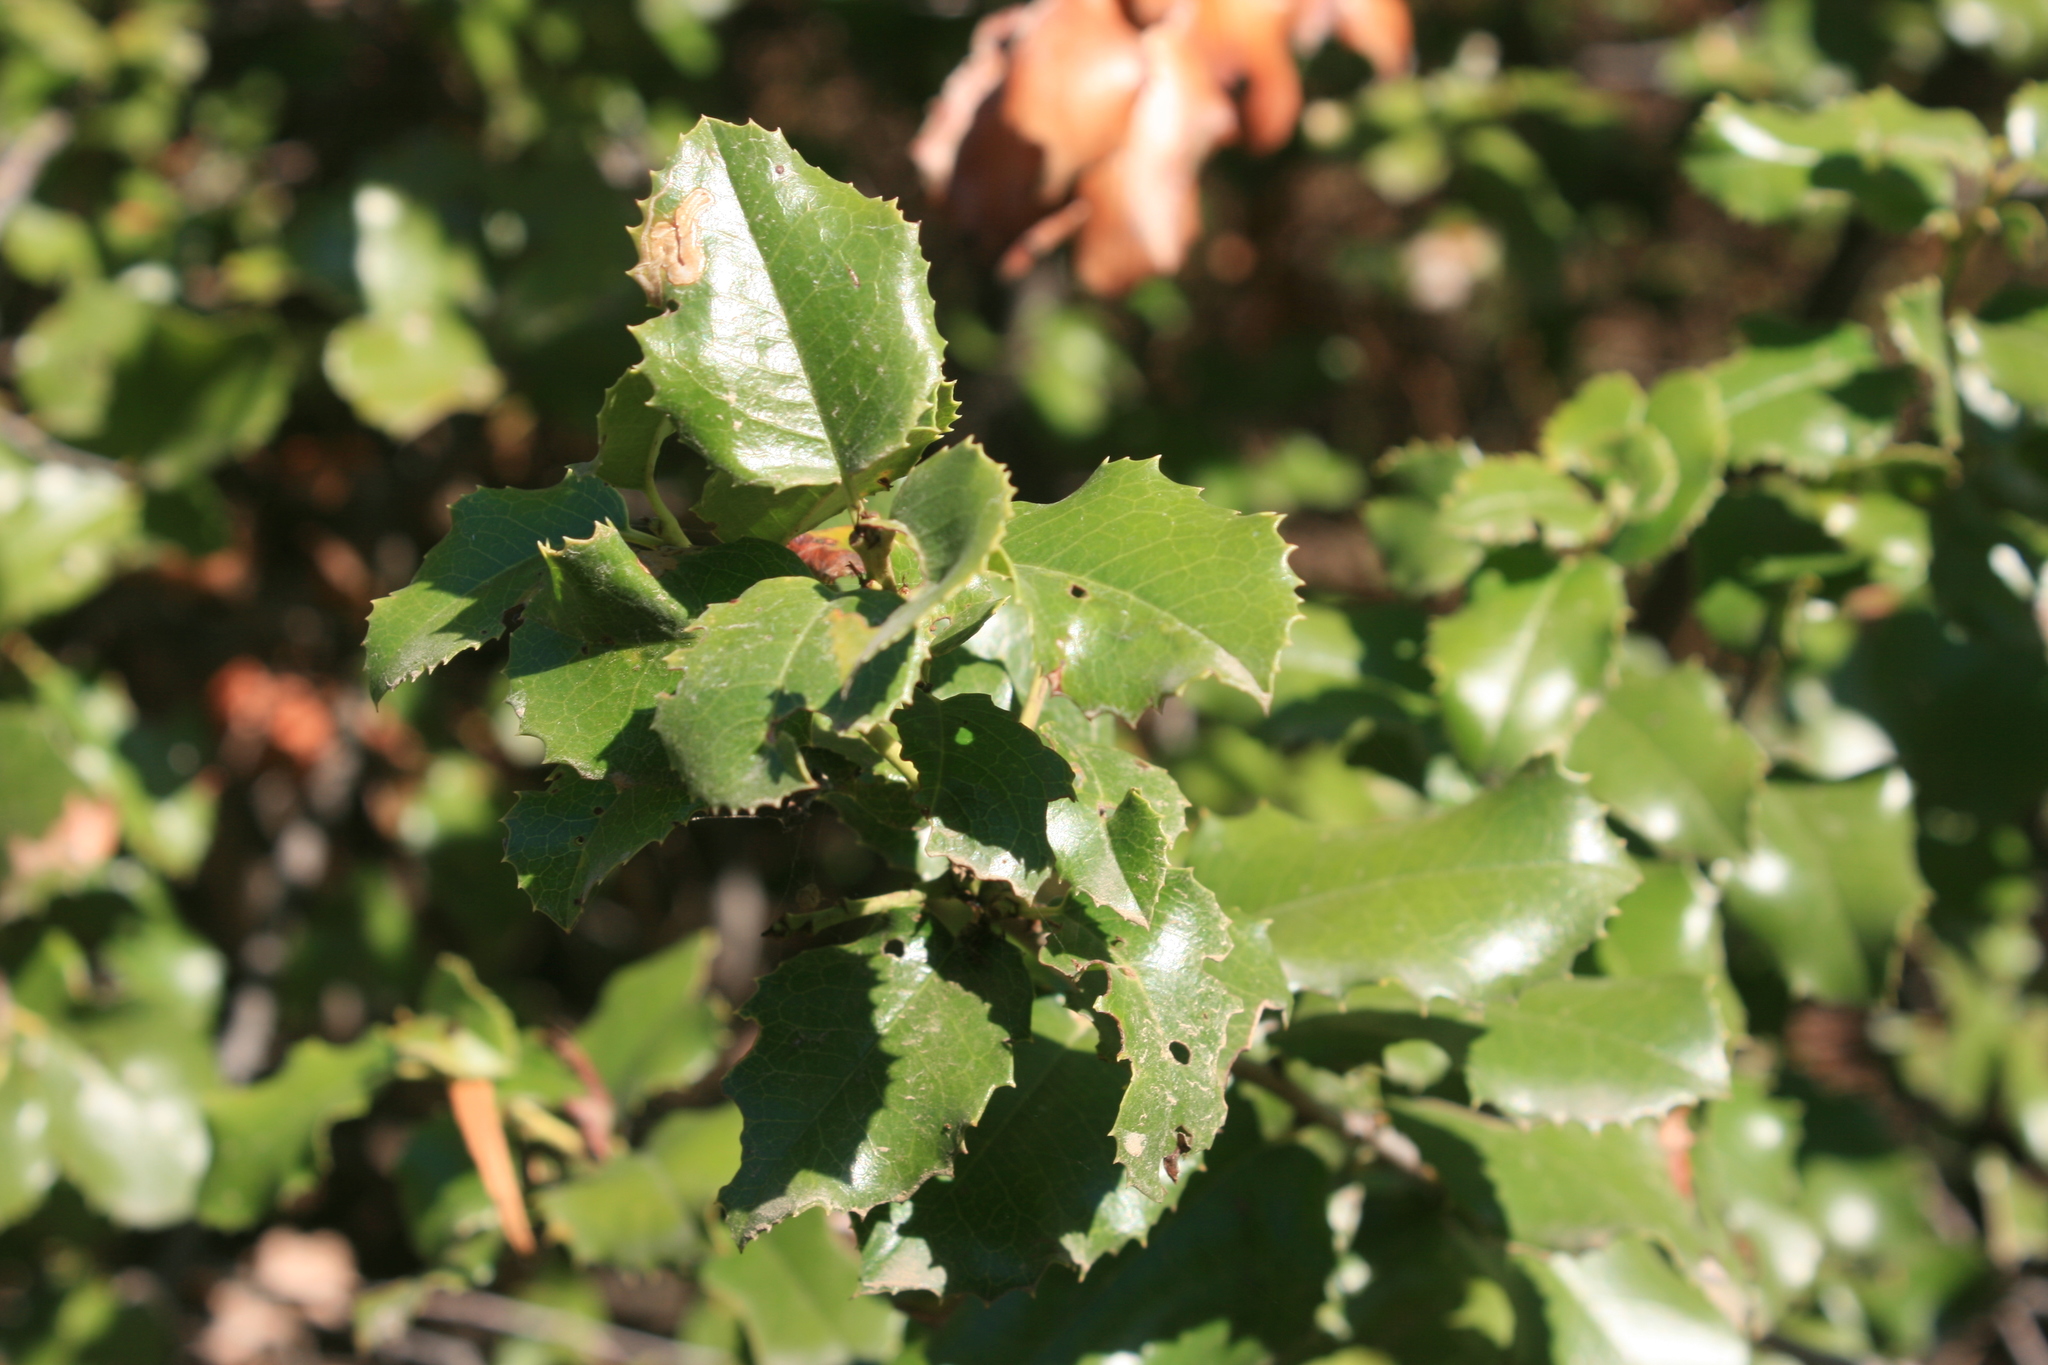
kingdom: Plantae
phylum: Tracheophyta
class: Magnoliopsida
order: Rosales
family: Rosaceae
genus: Prunus
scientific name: Prunus ilicifolia
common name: Hollyleaf cherry
